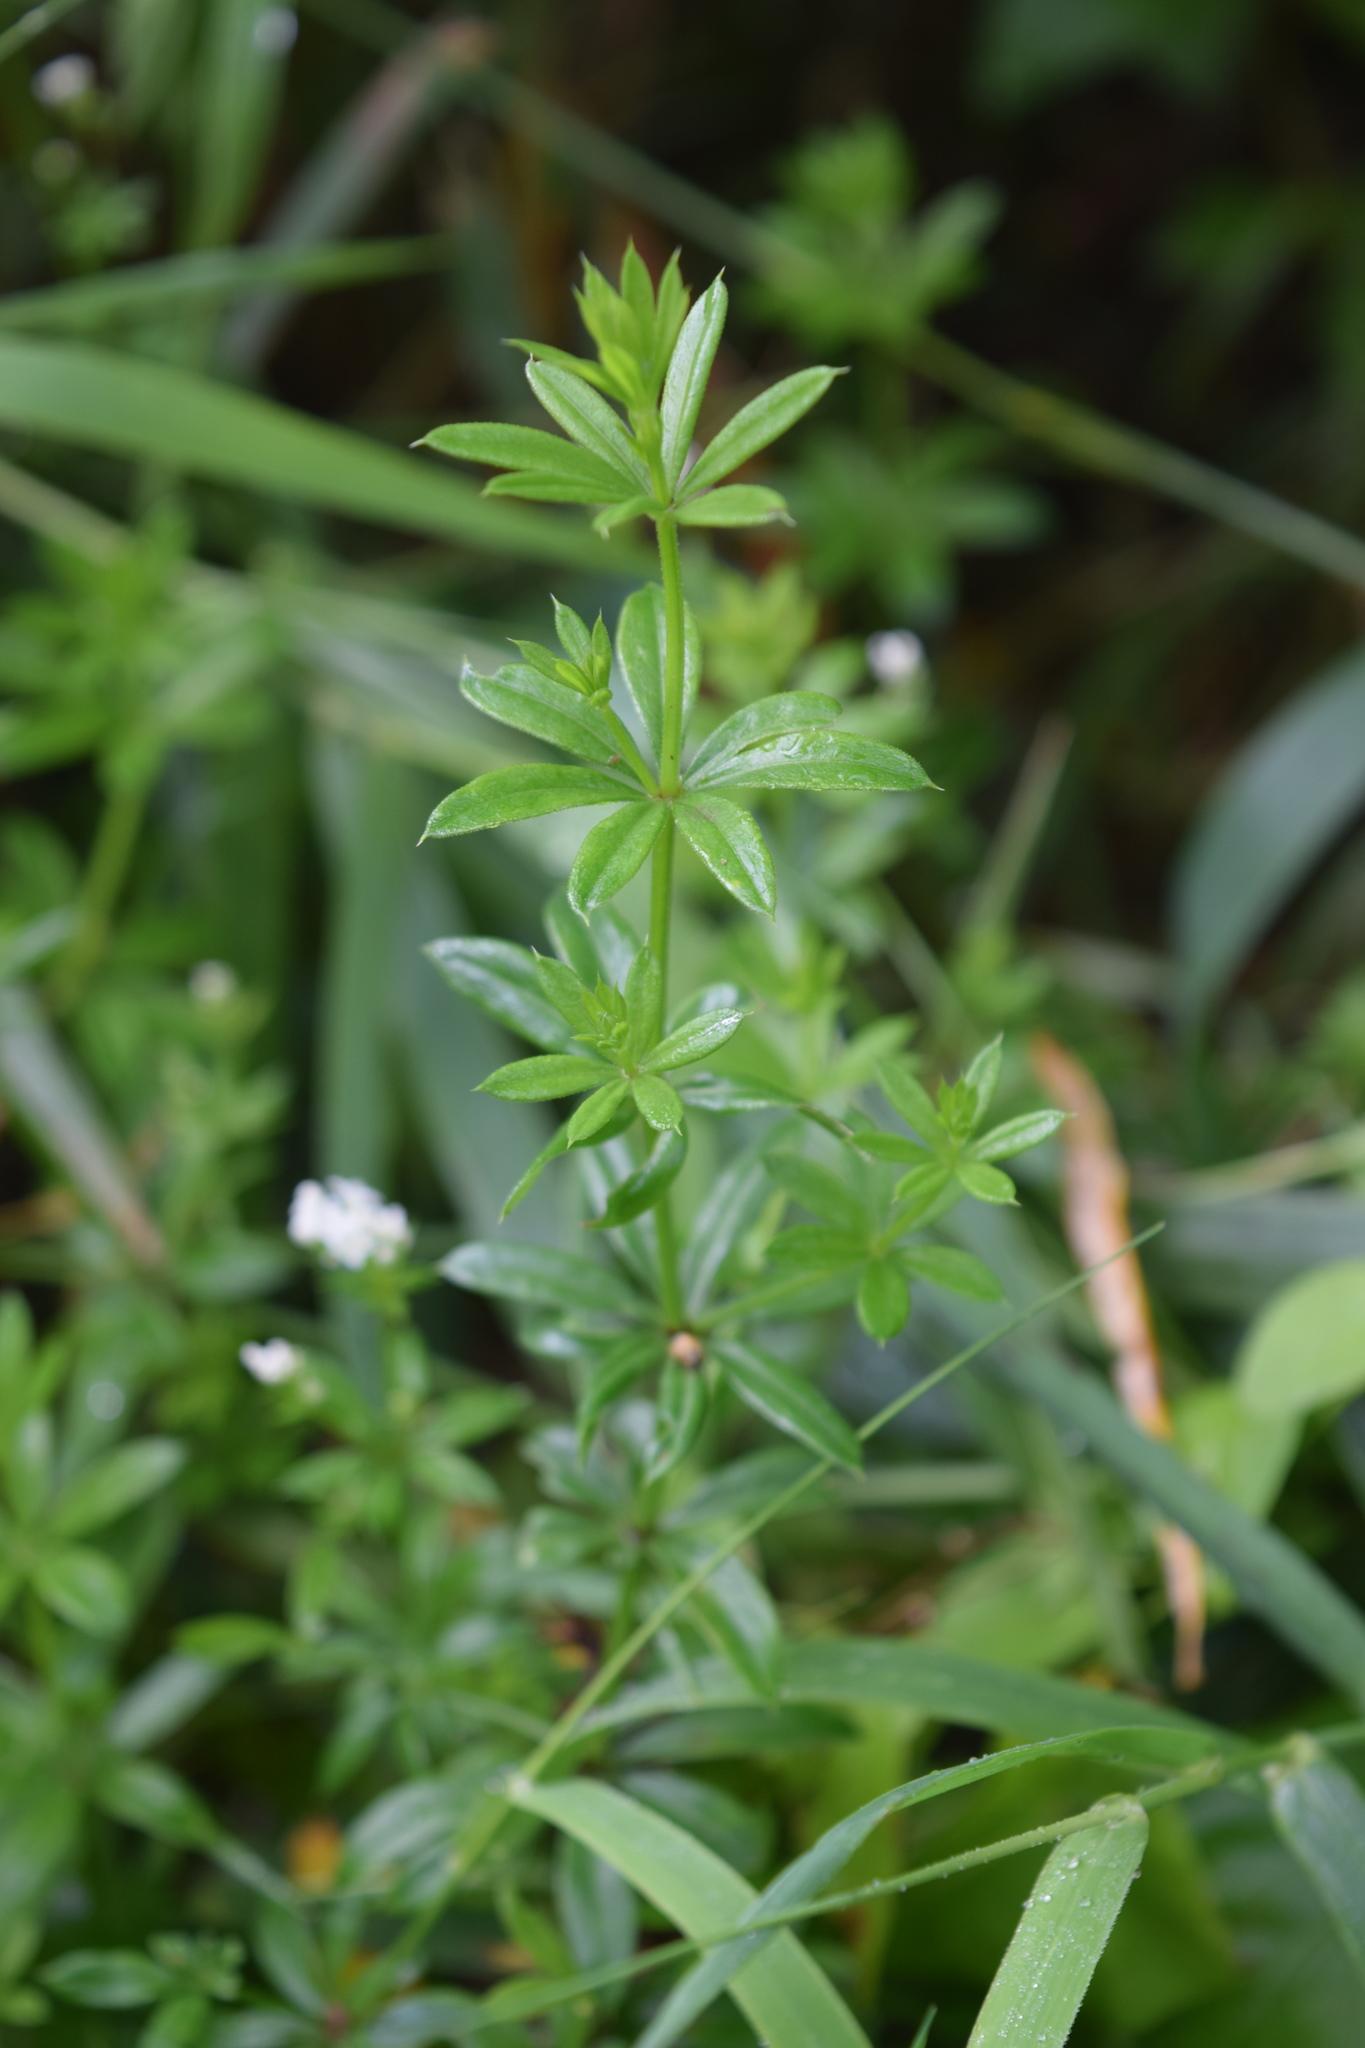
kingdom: Plantae
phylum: Tracheophyta
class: Magnoliopsida
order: Gentianales
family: Rubiaceae
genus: Galium
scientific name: Galium rivale
